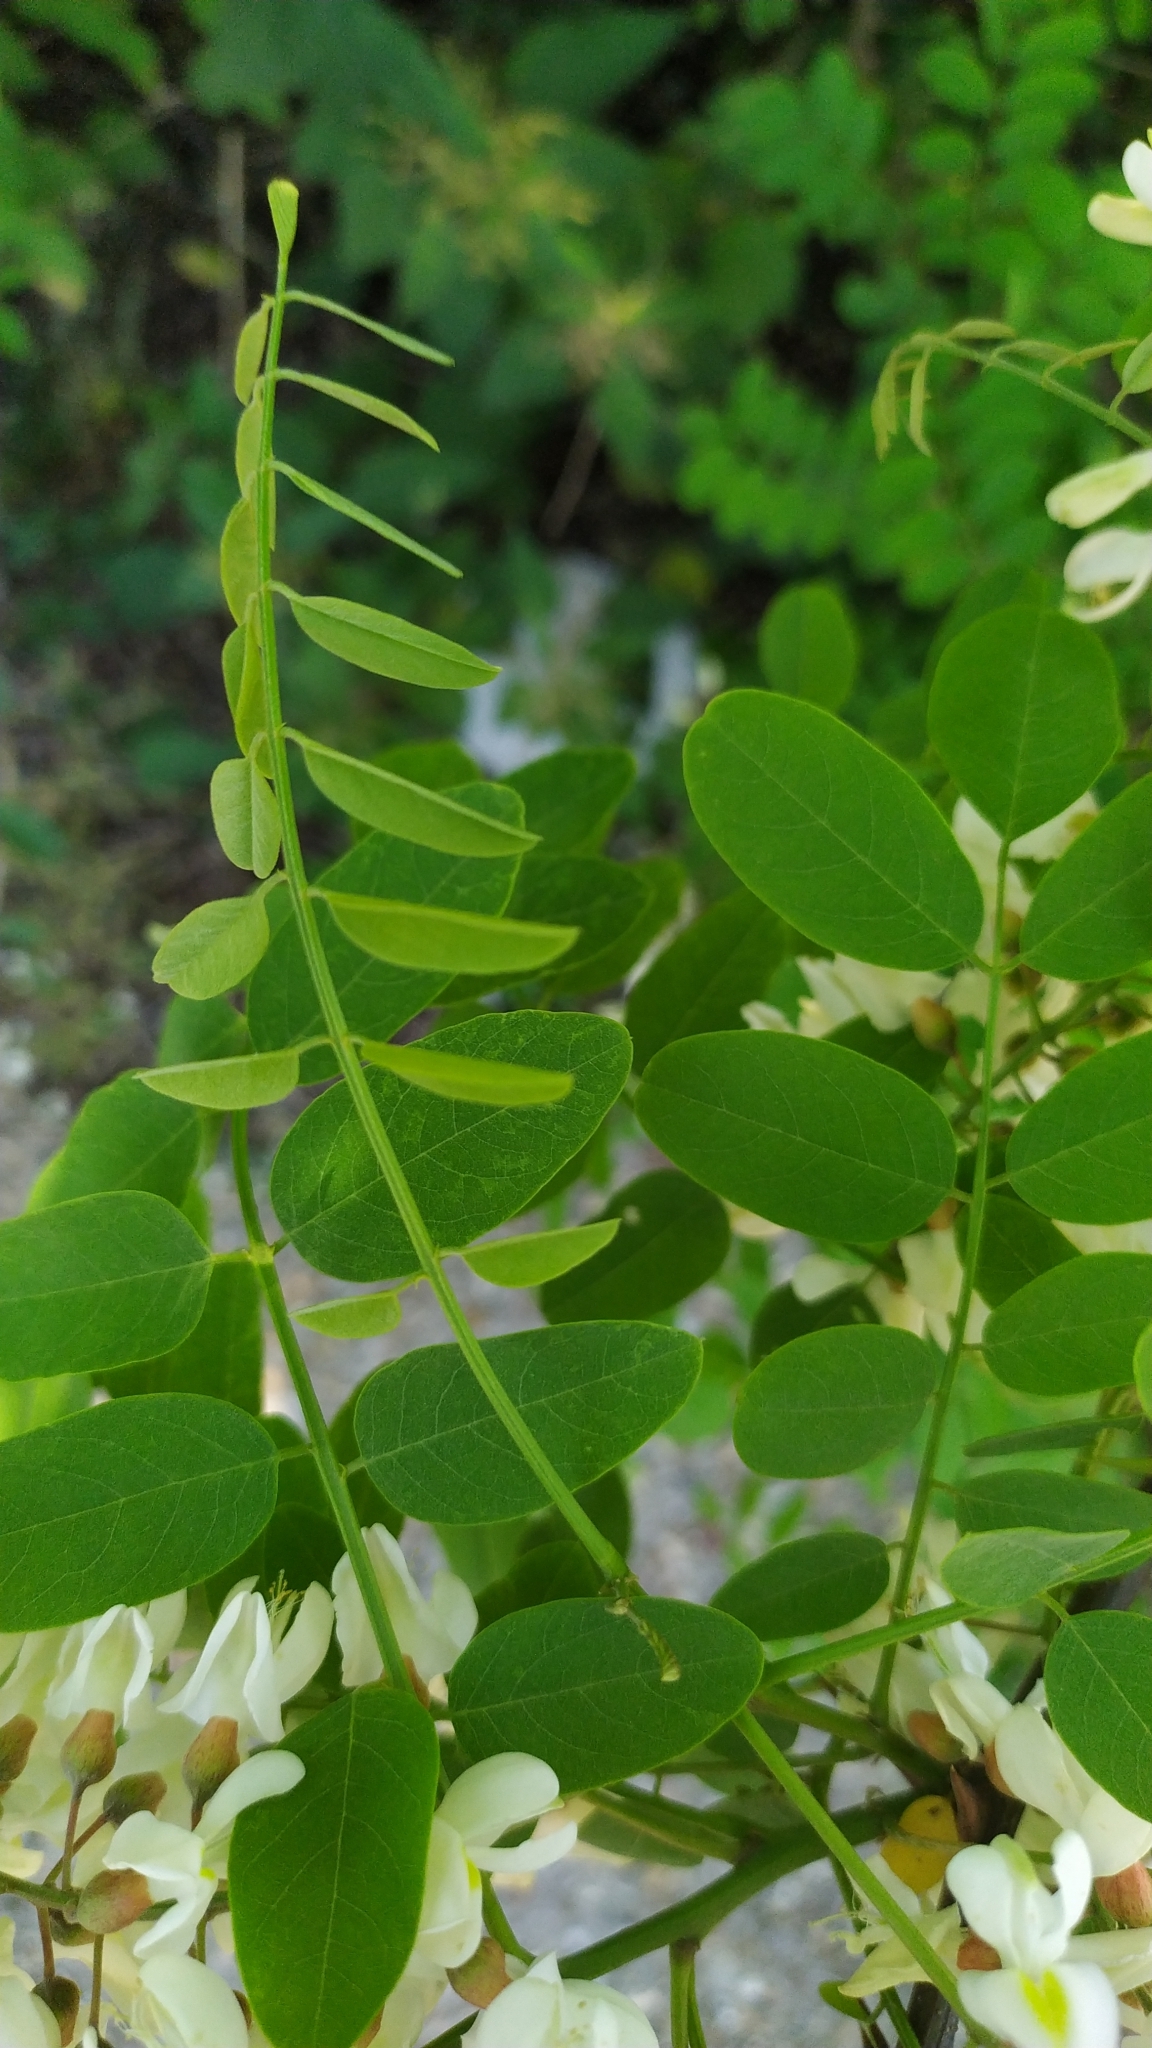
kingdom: Plantae
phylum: Tracheophyta
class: Magnoliopsida
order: Fabales
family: Fabaceae
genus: Robinia
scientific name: Robinia pseudoacacia
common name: Black locust
